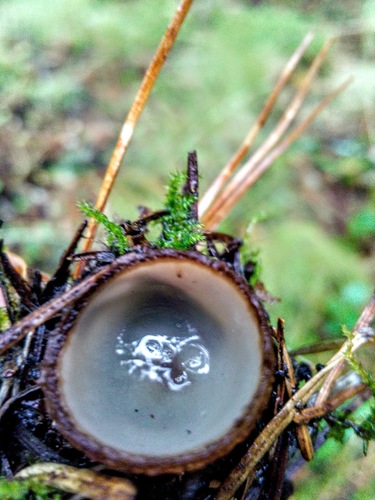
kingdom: Fungi
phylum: Ascomycota
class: Pezizomycetes
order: Pezizales
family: Pyronemataceae
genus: Humaria
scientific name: Humaria hemisphaerica
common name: Glazed cup
